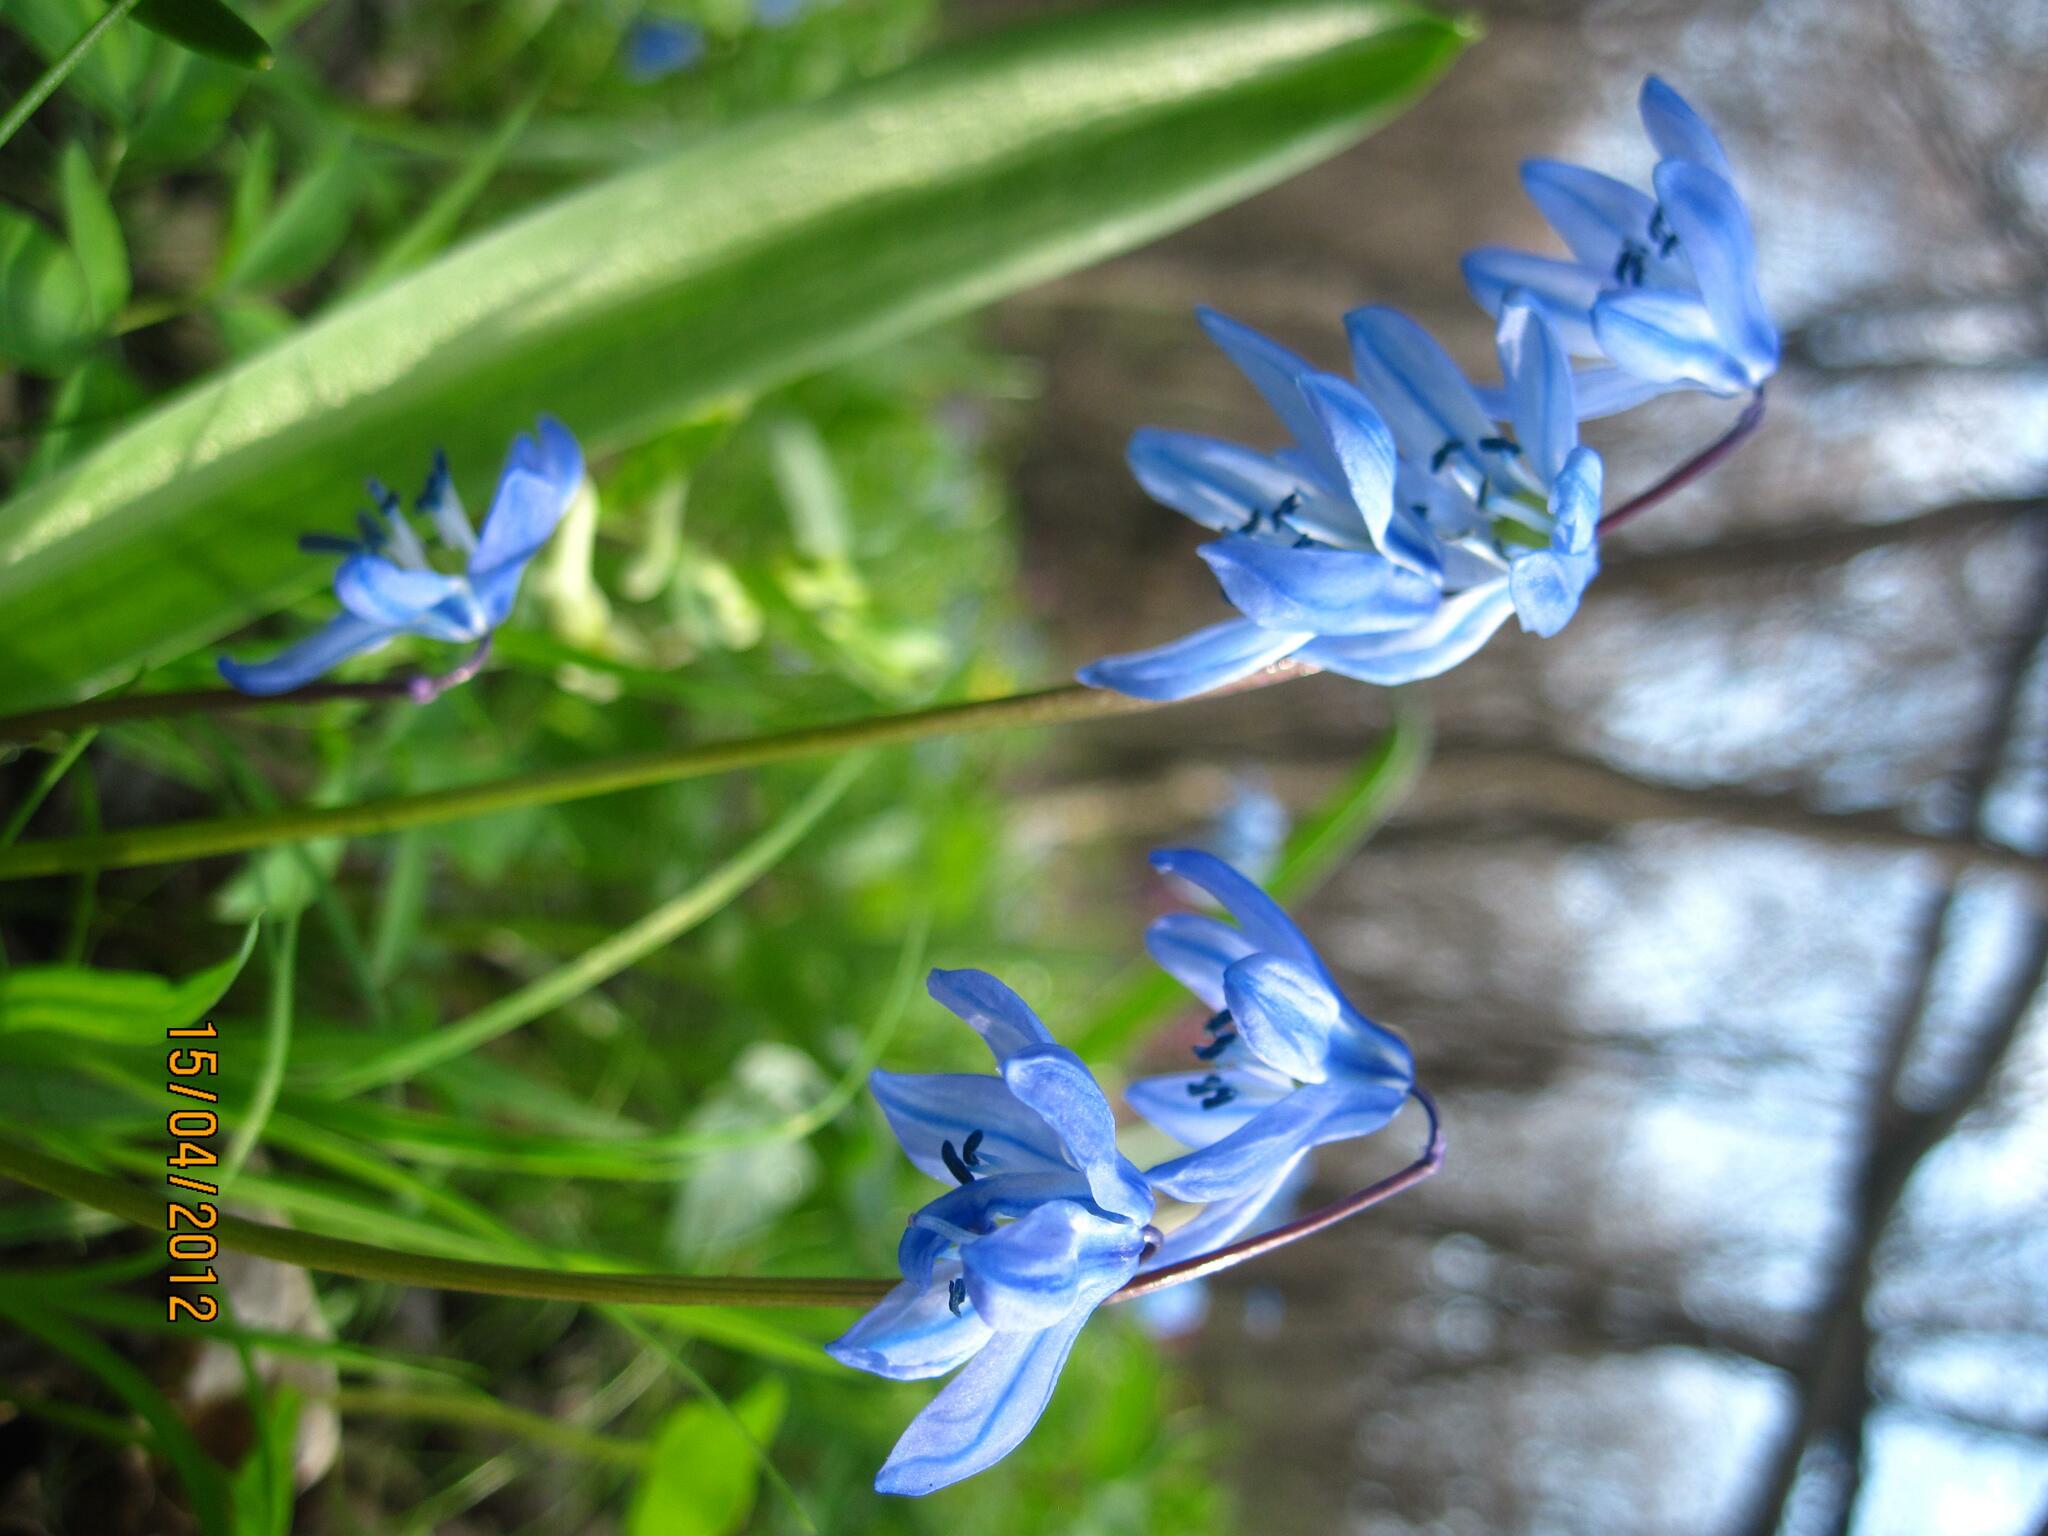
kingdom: Plantae
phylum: Tracheophyta
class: Liliopsida
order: Asparagales
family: Asparagaceae
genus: Scilla
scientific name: Scilla siberica
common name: Siberian squill
